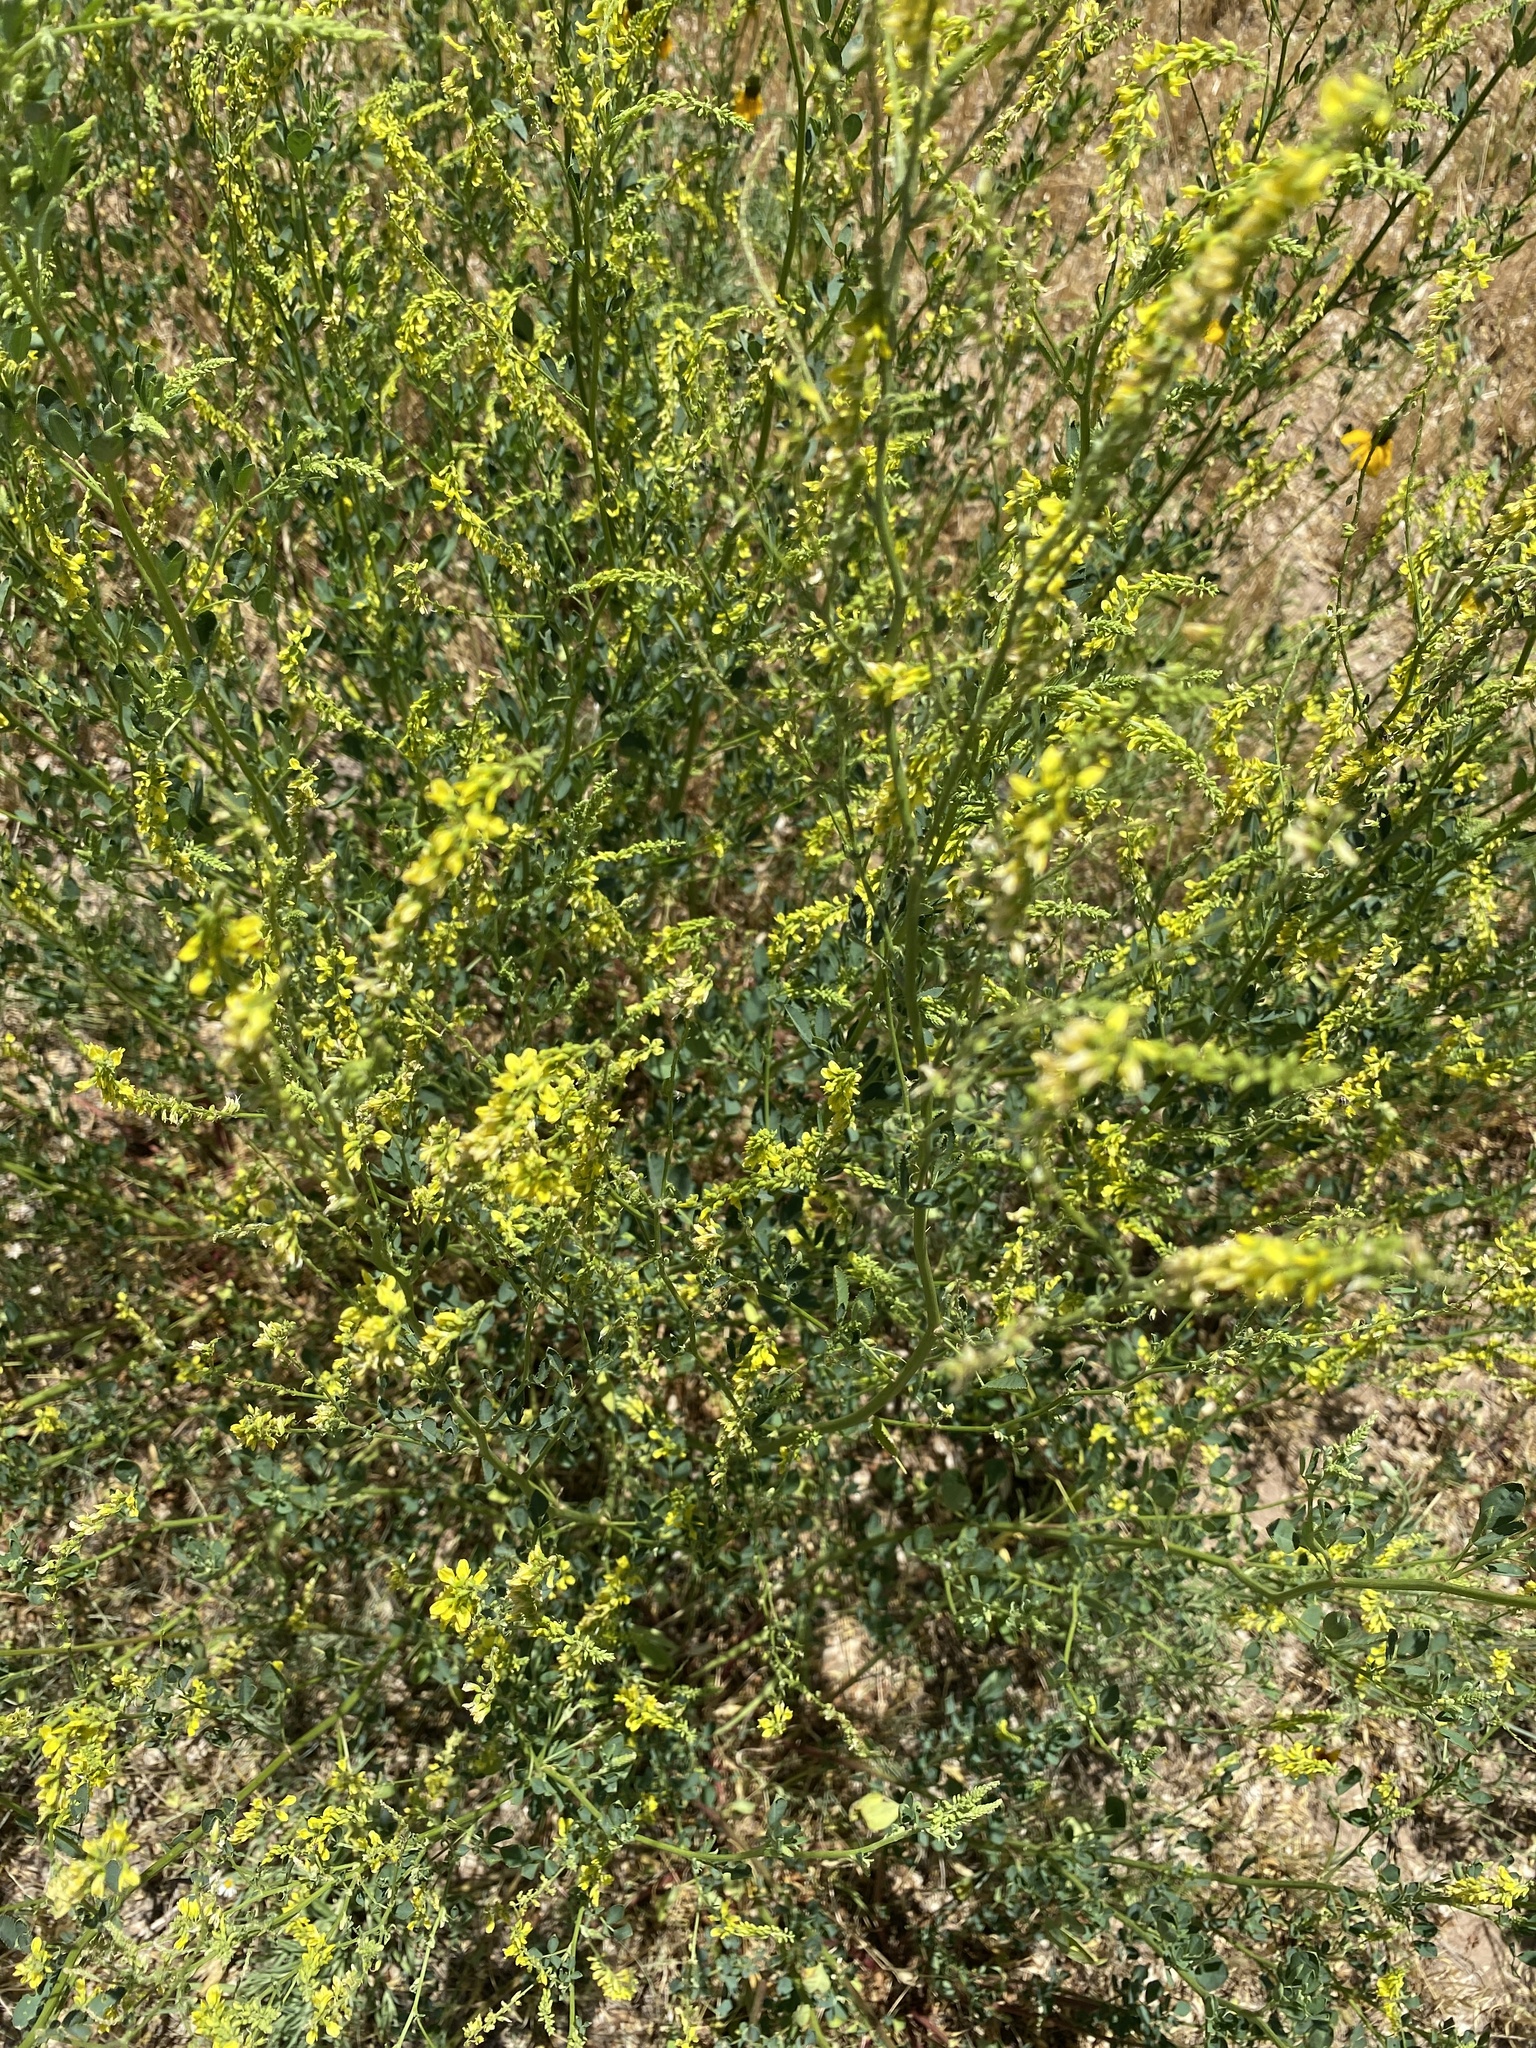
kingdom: Plantae
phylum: Tracheophyta
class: Magnoliopsida
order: Fabales
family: Fabaceae
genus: Melilotus
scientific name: Melilotus officinalis
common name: Sweetclover
